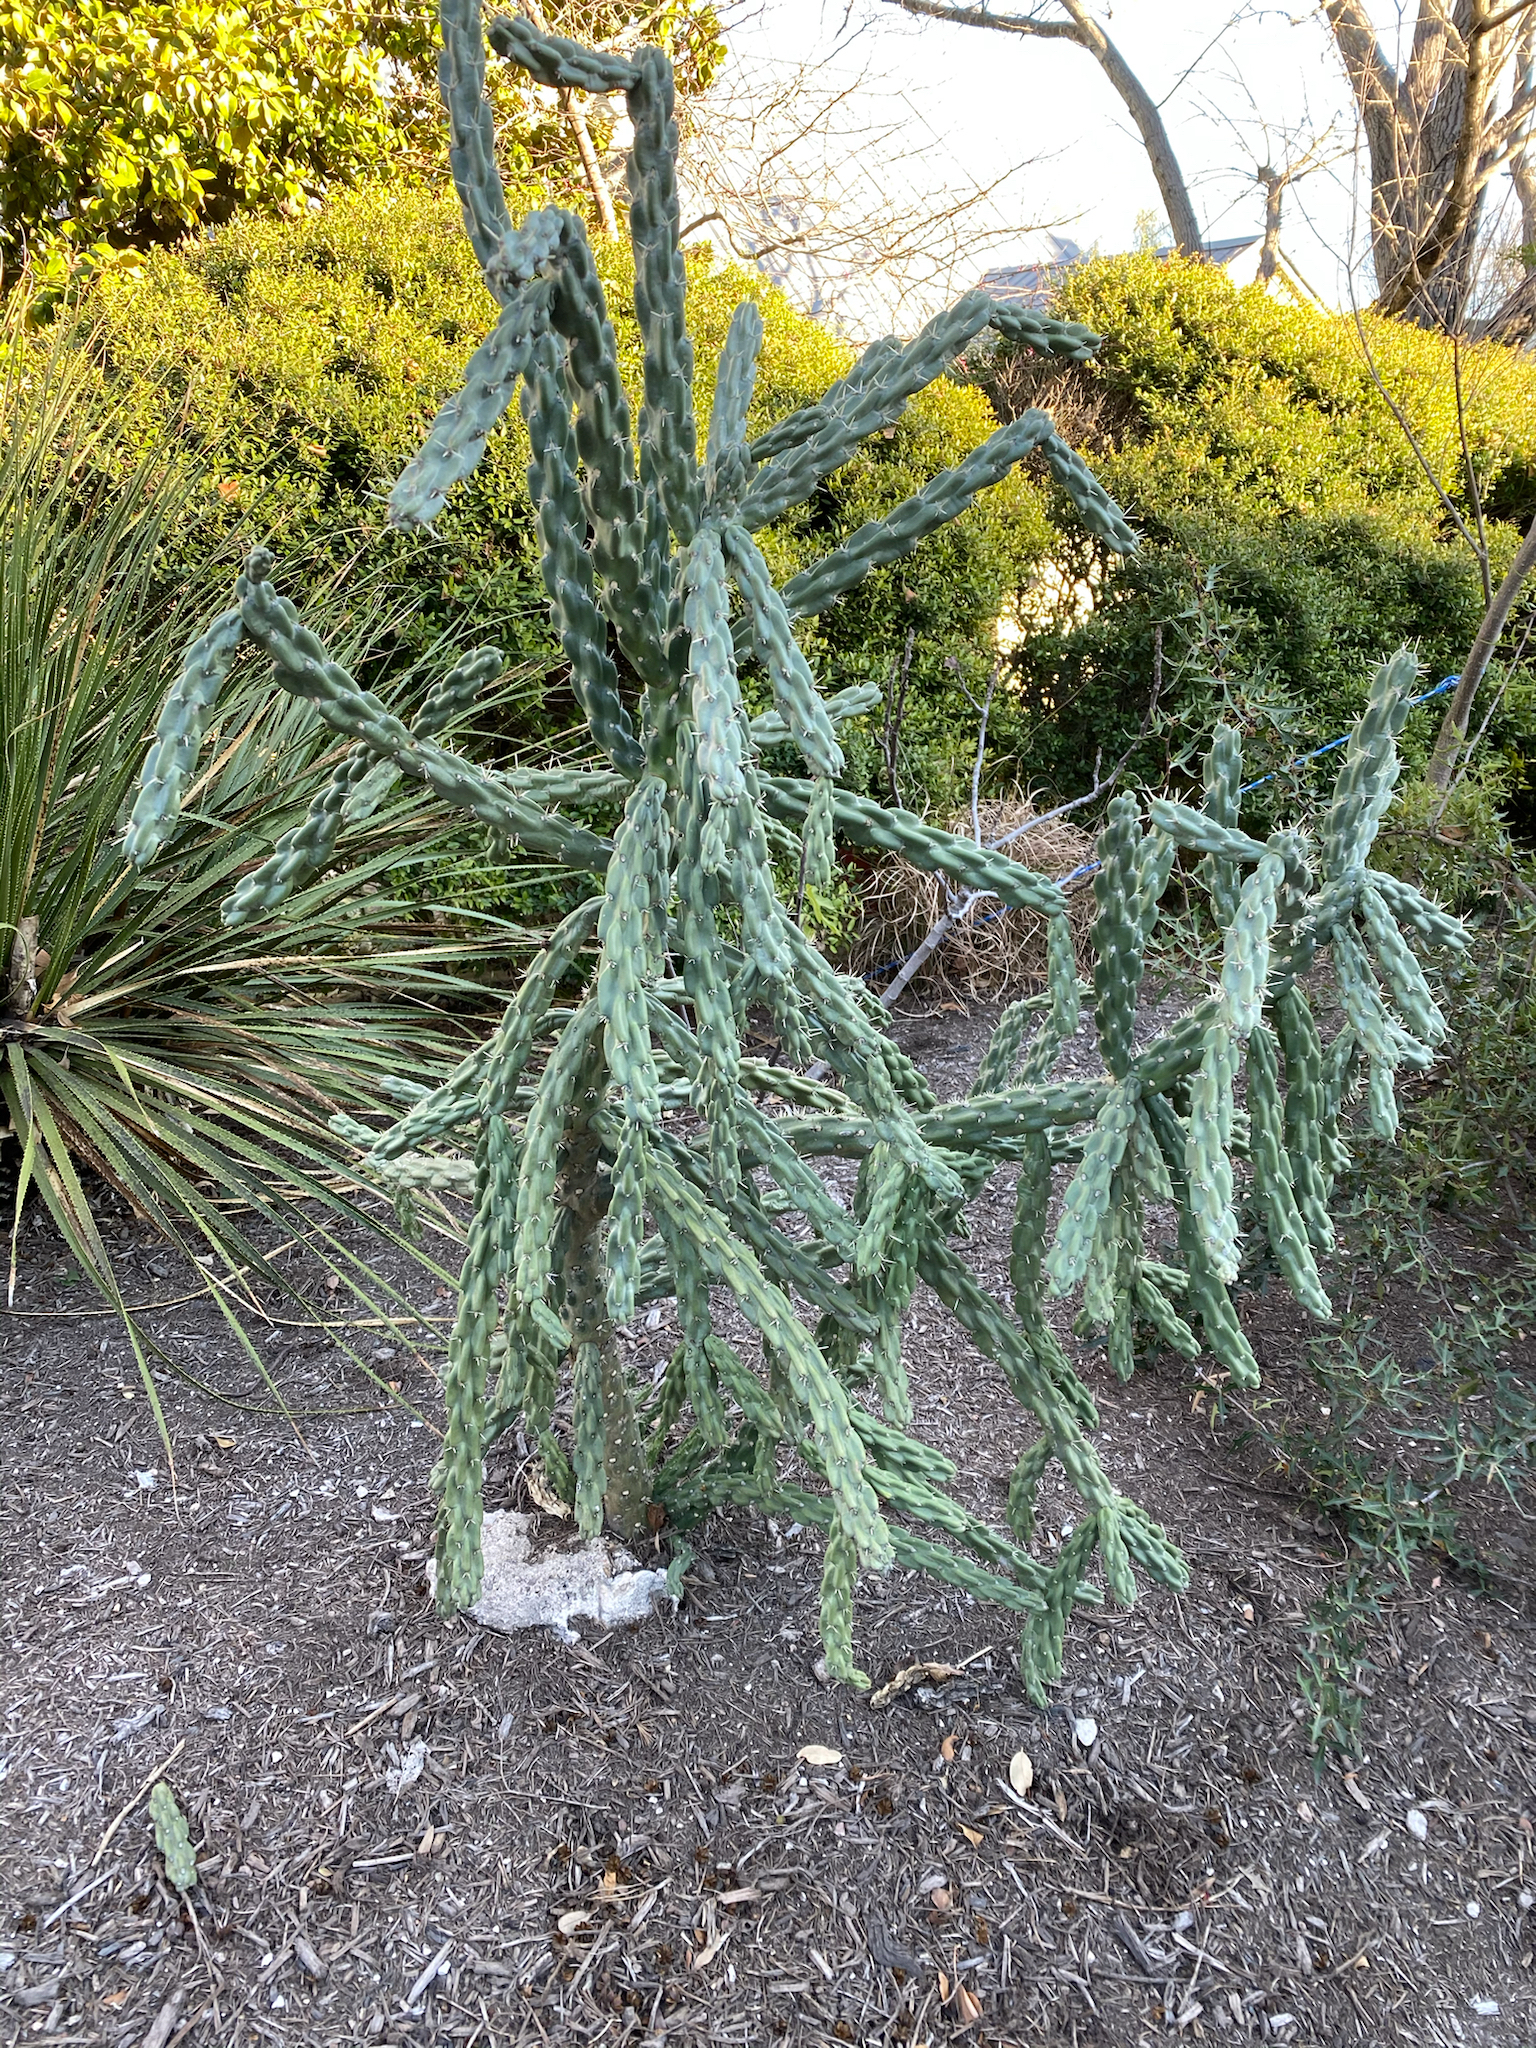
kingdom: Plantae
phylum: Tracheophyta
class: Magnoliopsida
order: Caryophyllales
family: Cactaceae
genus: Cylindropuntia
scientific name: Cylindropuntia imbricata
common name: Candelabrum cactus
